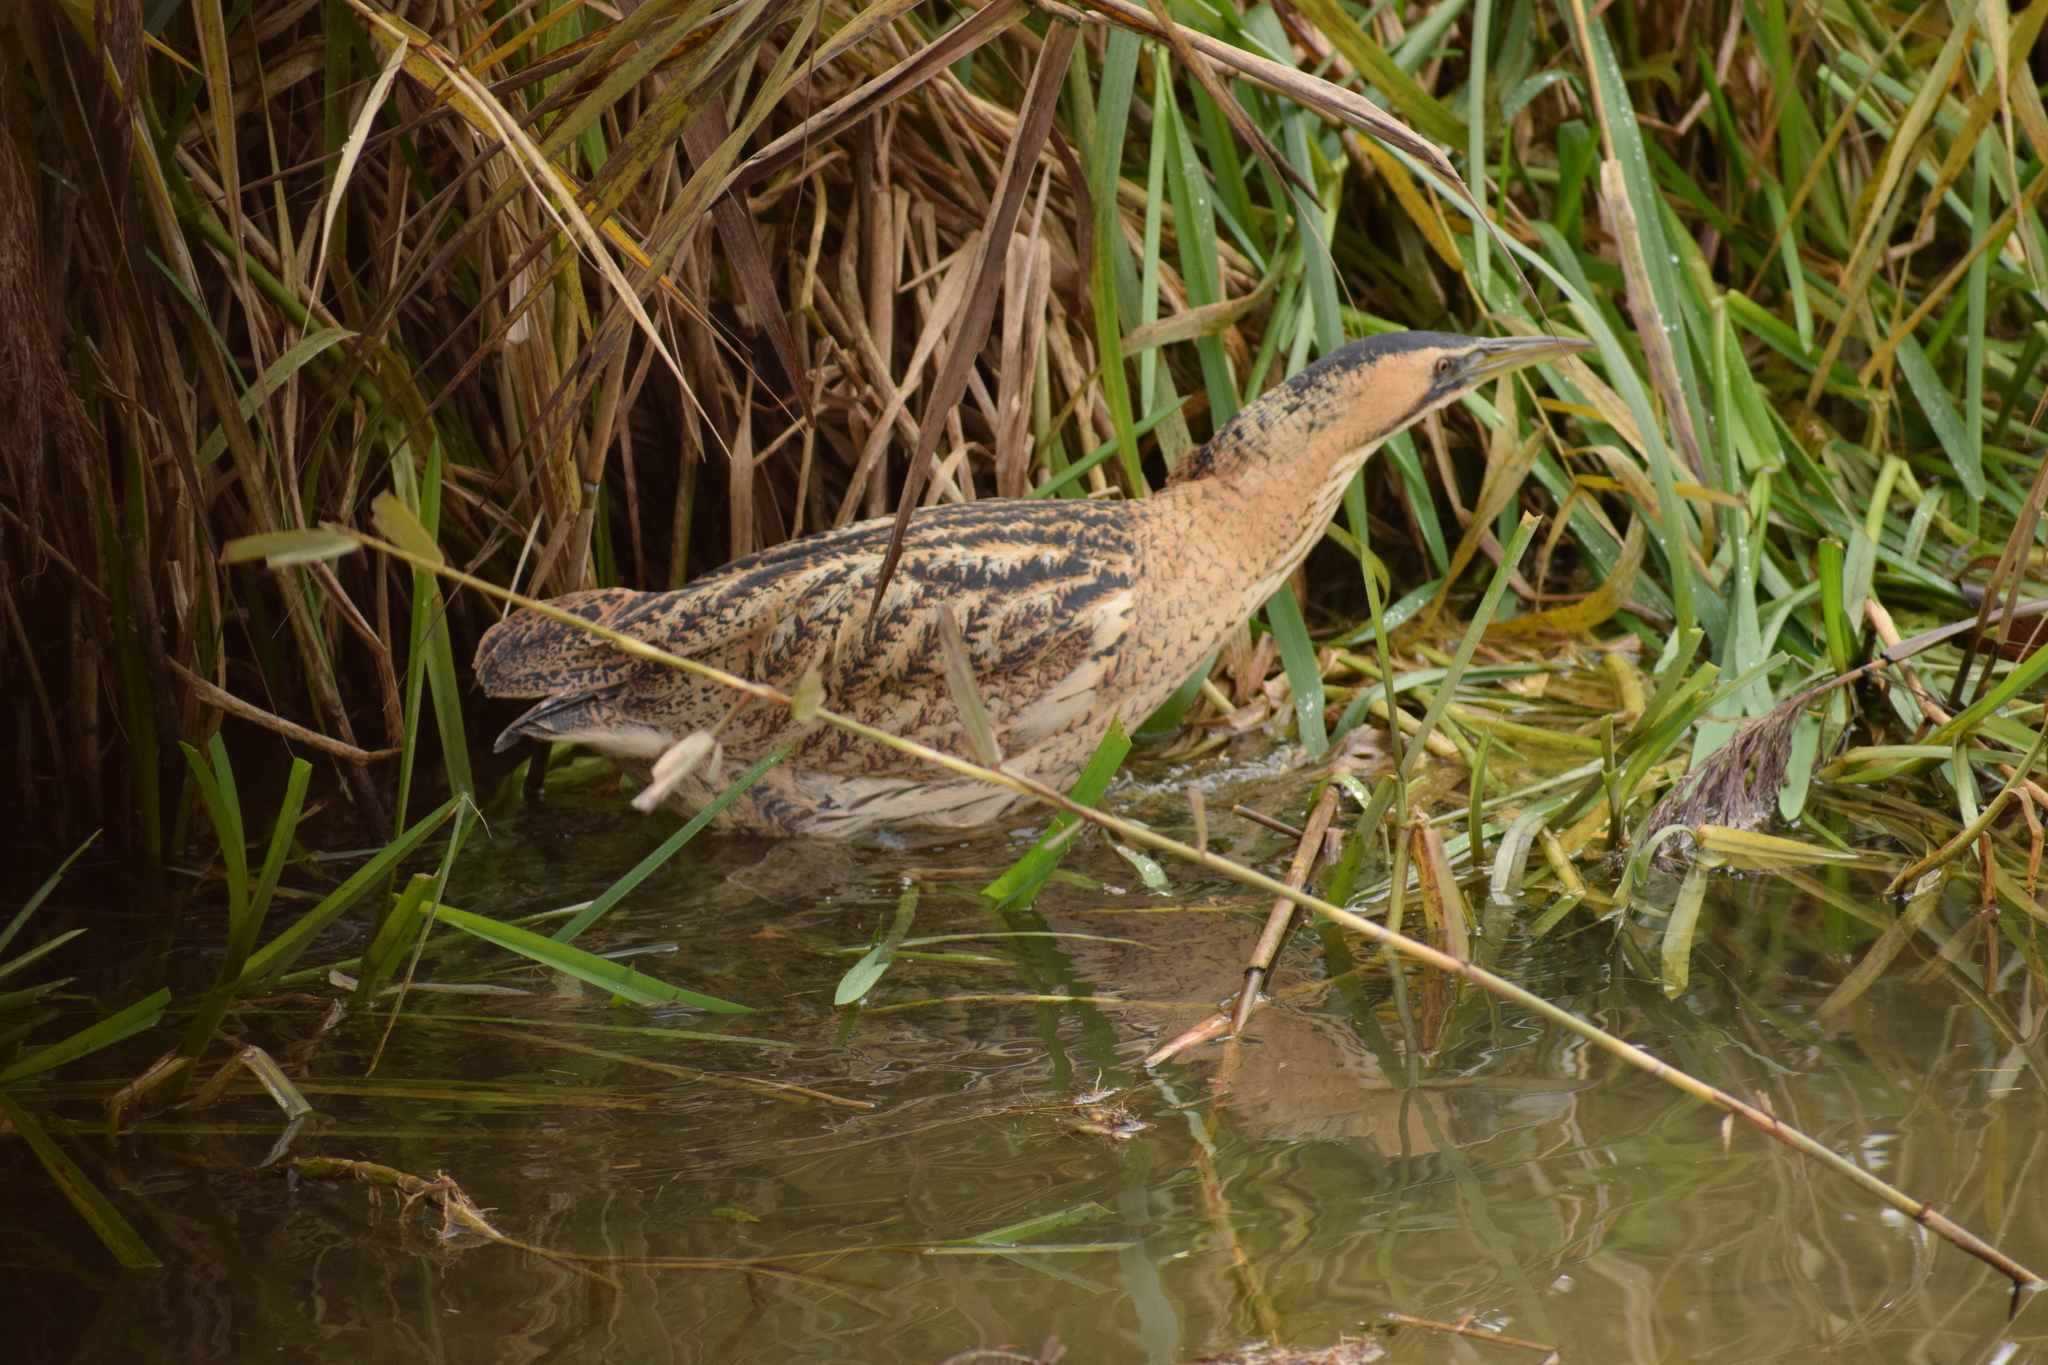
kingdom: Animalia
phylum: Chordata
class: Aves
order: Pelecaniformes
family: Ardeidae
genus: Botaurus
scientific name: Botaurus stellaris
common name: Eurasian bittern
